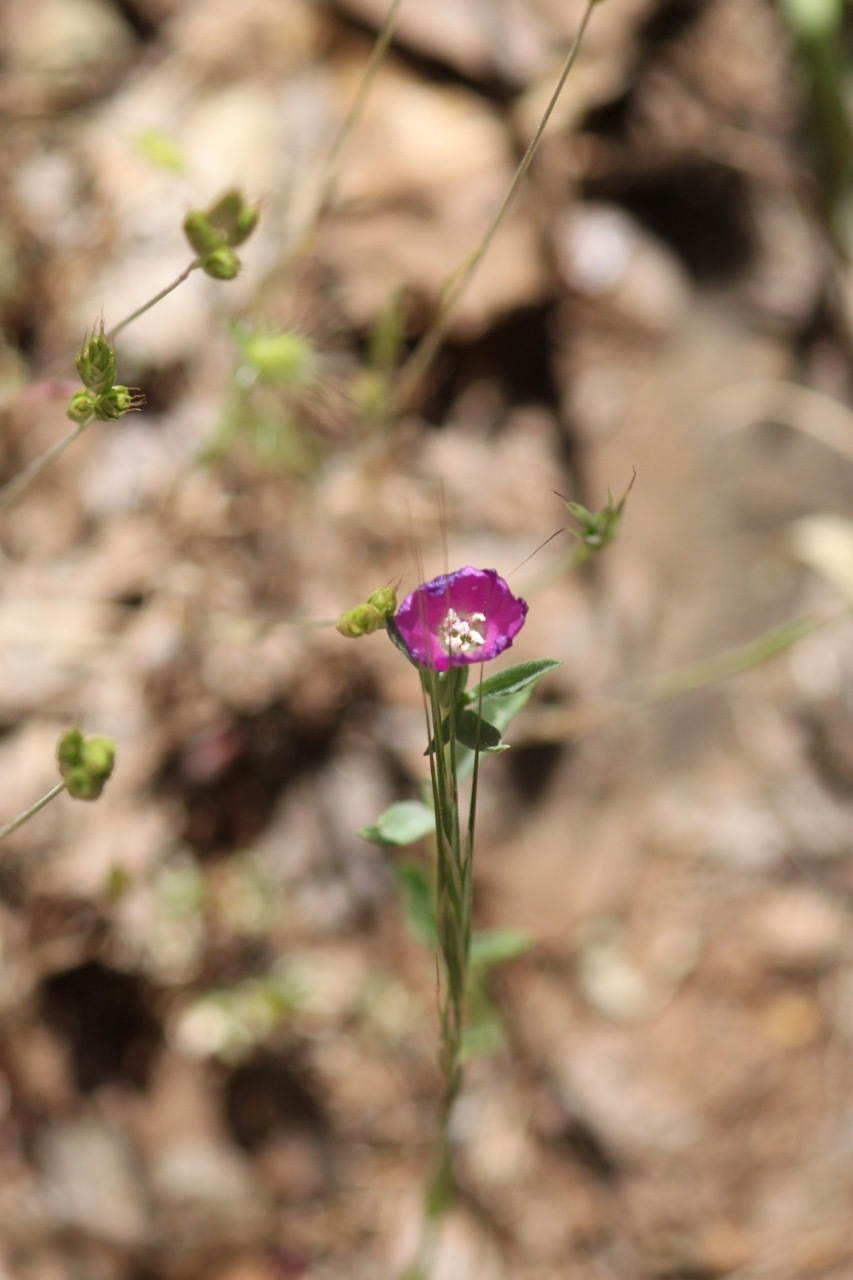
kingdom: Plantae
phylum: Tracheophyta
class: Magnoliopsida
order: Myrtales
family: Onagraceae
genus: Clarkia
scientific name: Clarkia purpurea
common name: Purple clarkia
